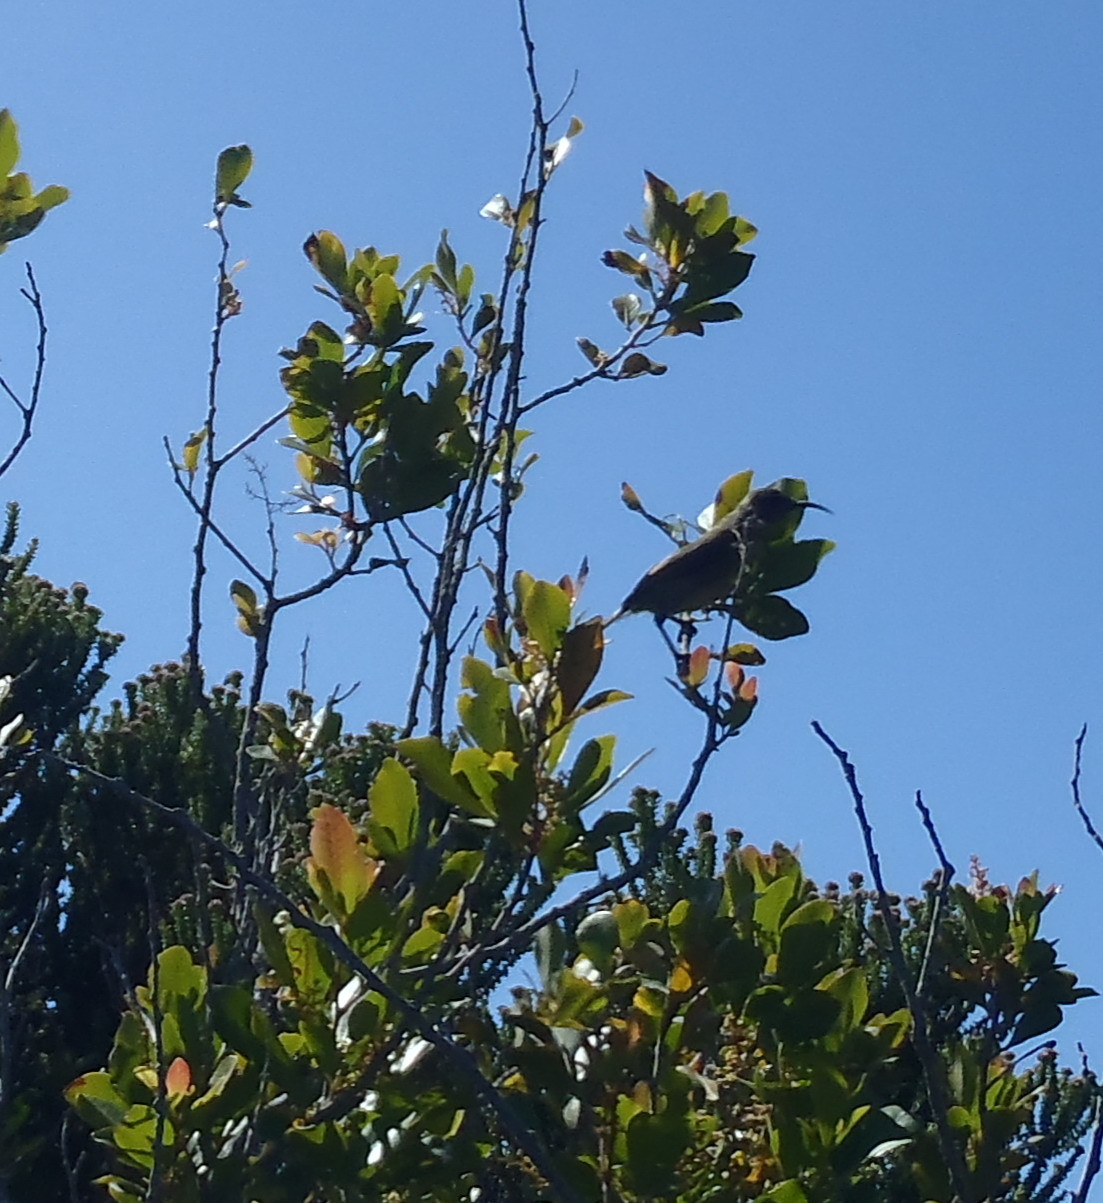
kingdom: Animalia
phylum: Chordata
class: Aves
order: Passeriformes
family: Nectariniidae
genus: Anthobaphes
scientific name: Anthobaphes violacea
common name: Orange-breasted sunbird
